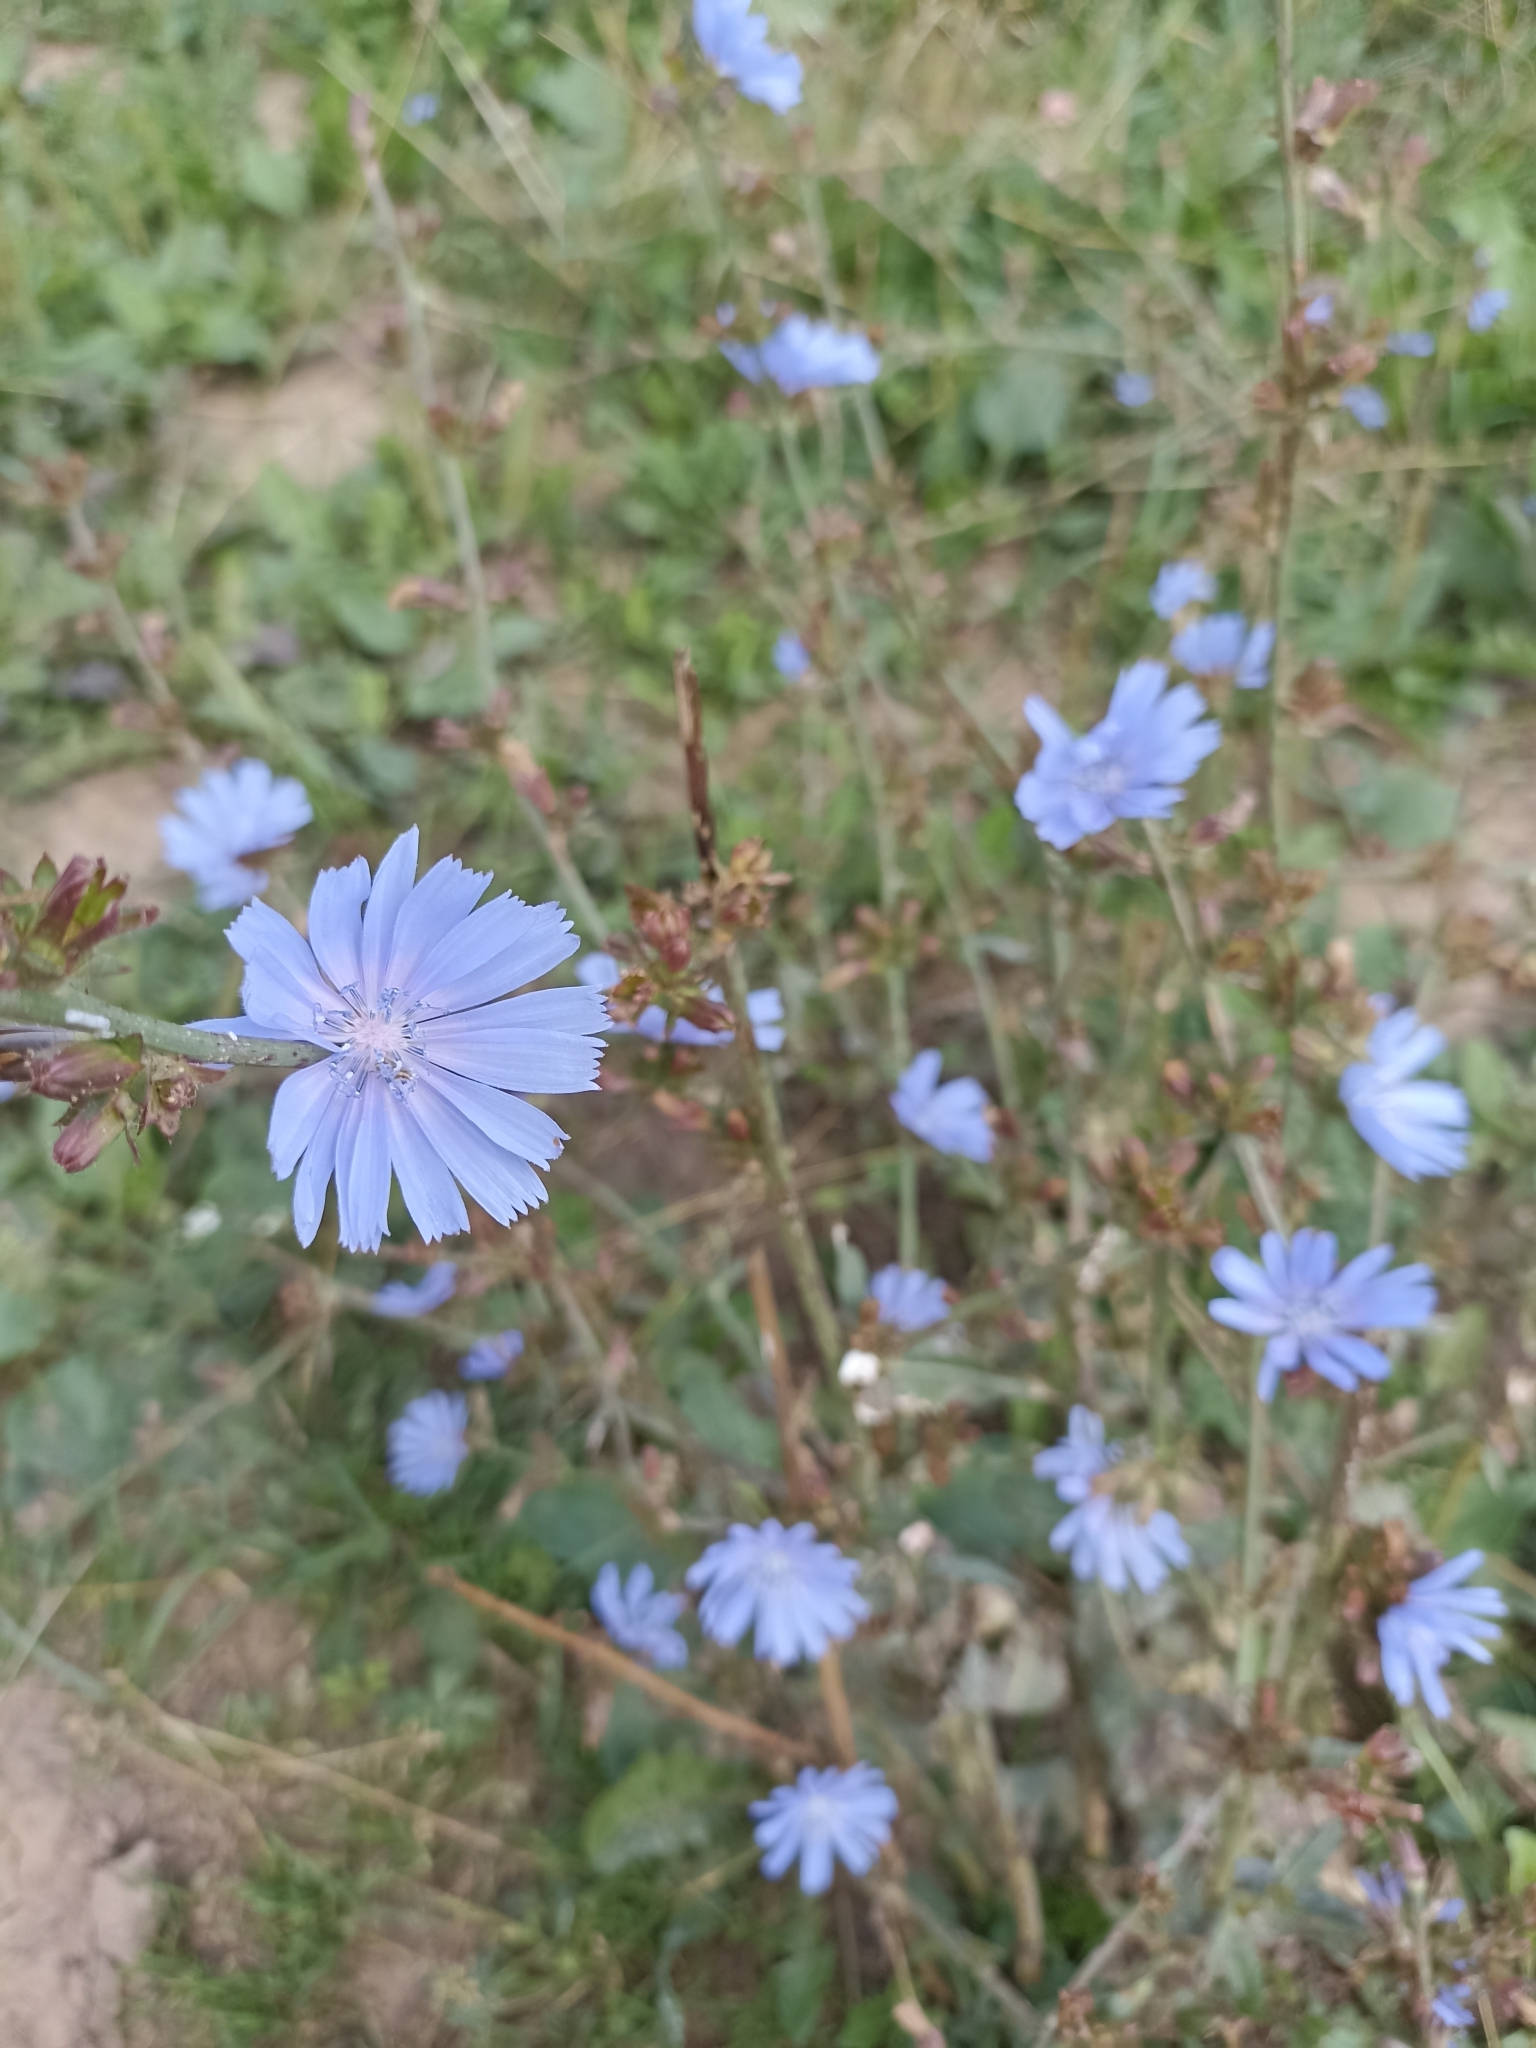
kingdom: Plantae
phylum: Tracheophyta
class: Magnoliopsida
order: Asterales
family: Asteraceae
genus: Cichorium
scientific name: Cichorium intybus
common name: Chicory
